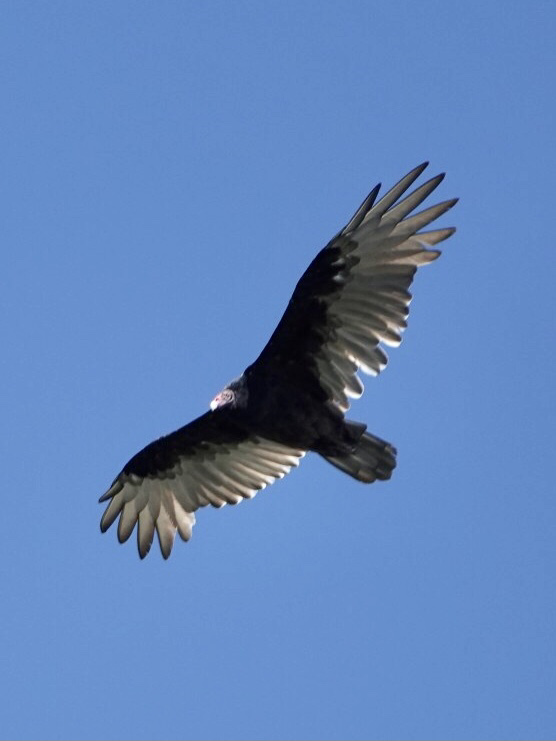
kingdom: Animalia
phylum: Chordata
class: Aves
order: Accipitriformes
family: Cathartidae
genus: Cathartes
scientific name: Cathartes aura
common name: Turkey vulture
